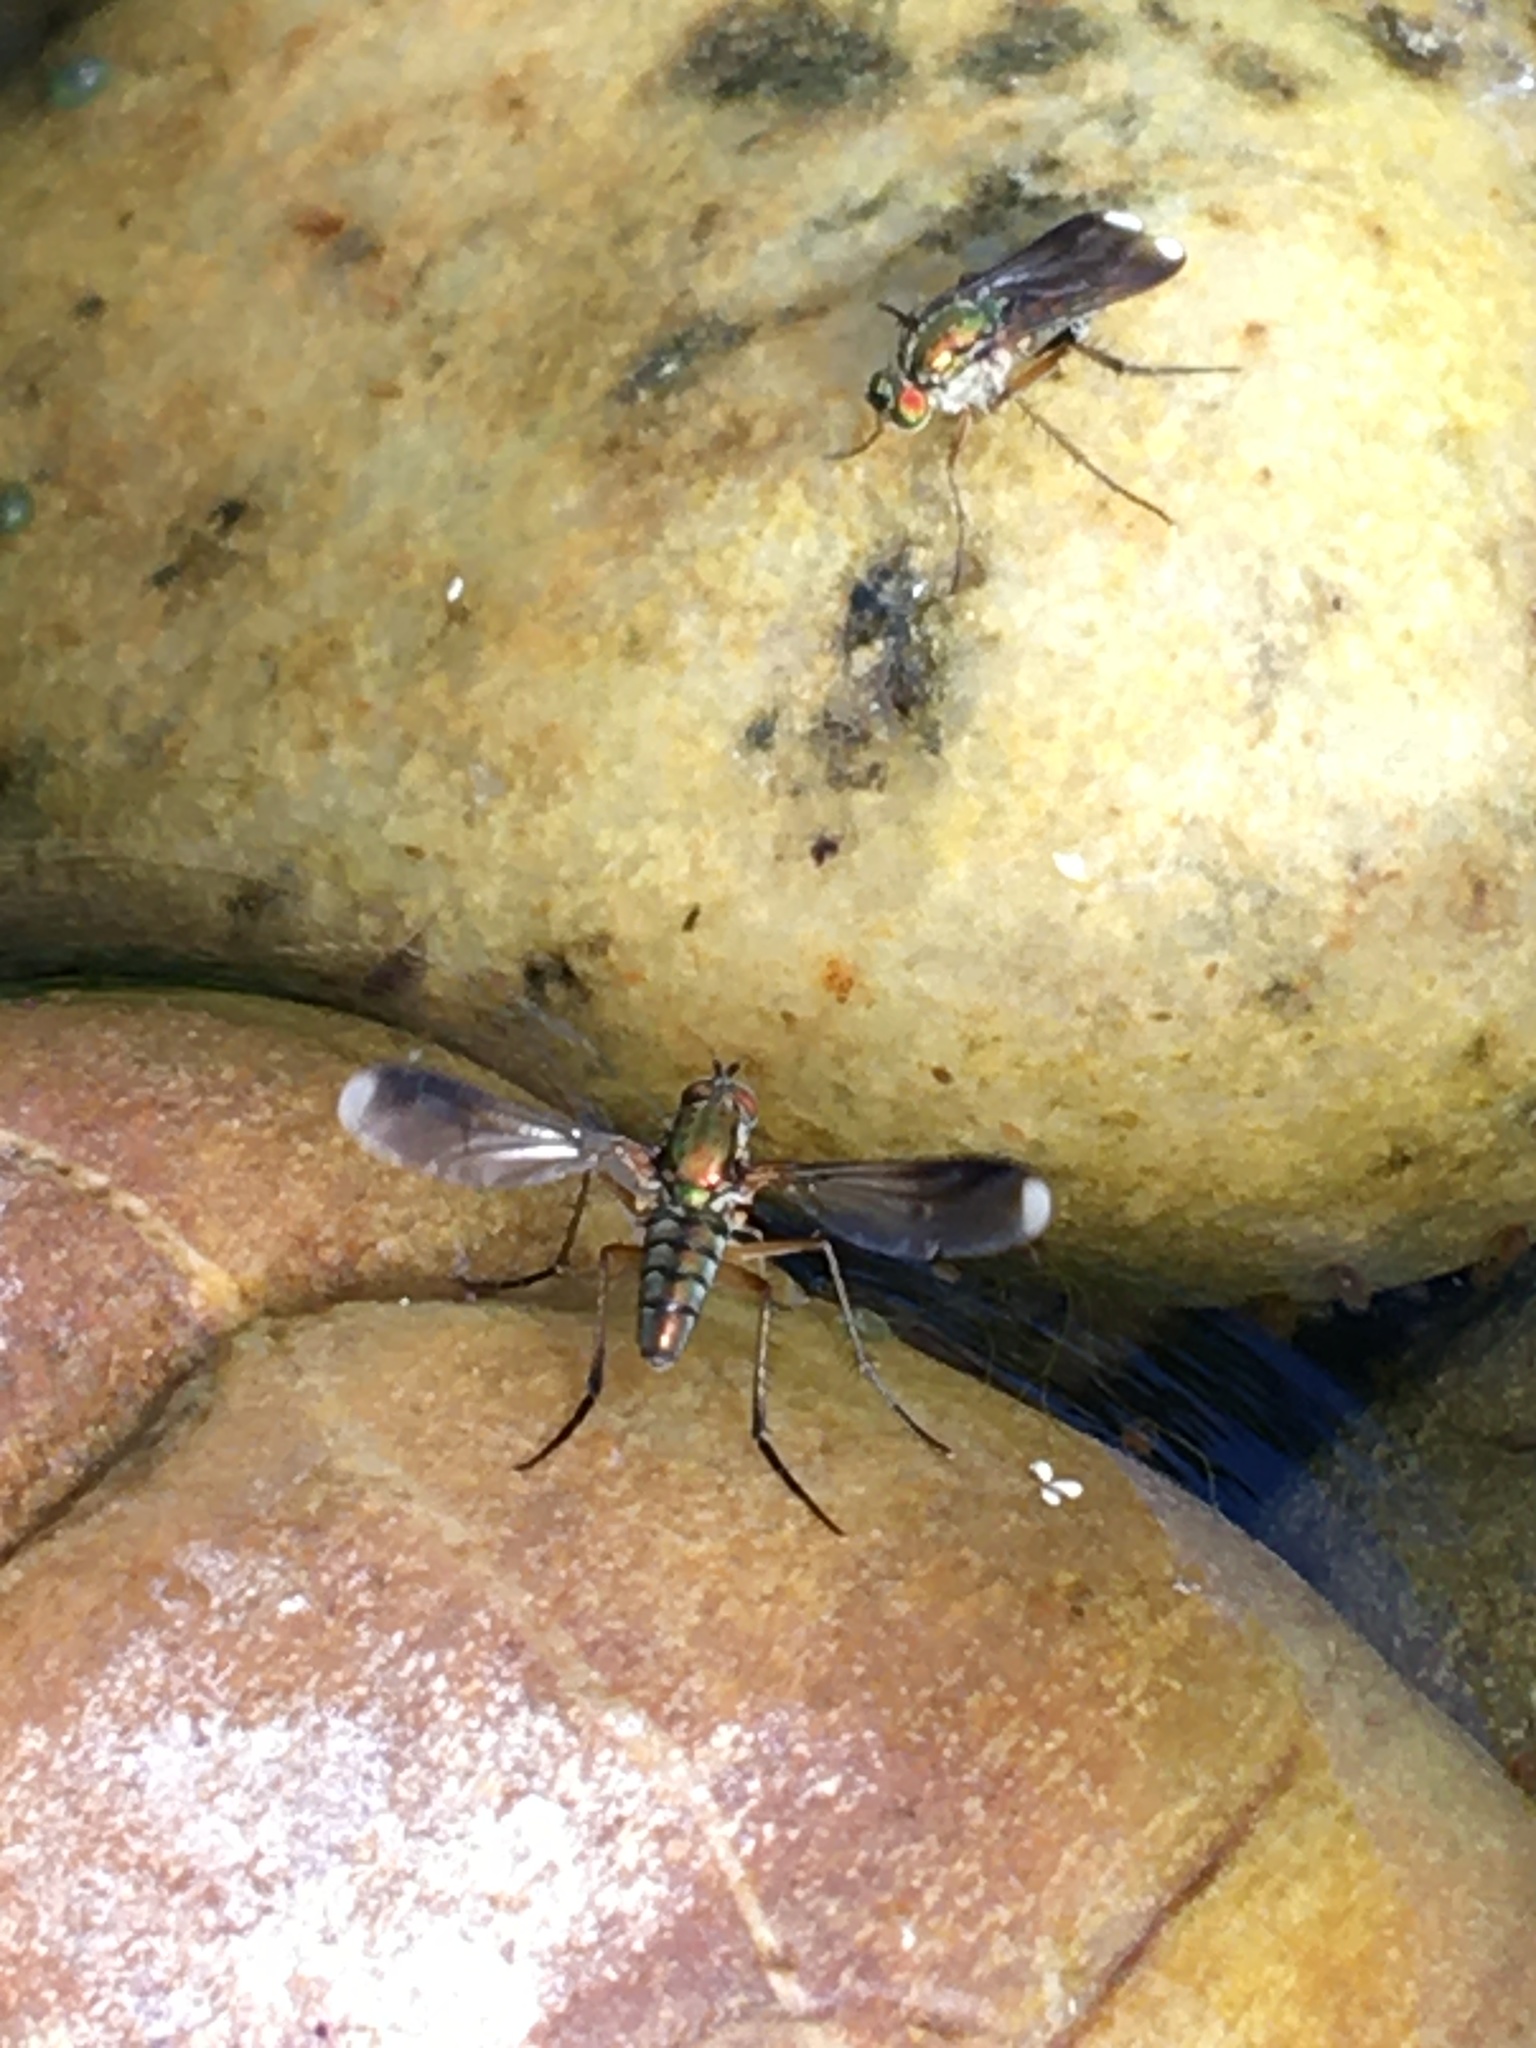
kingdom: Animalia
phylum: Arthropoda
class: Insecta
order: Diptera
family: Dolichopodidae
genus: Poecilobothrus
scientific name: Poecilobothrus nobilitatus
